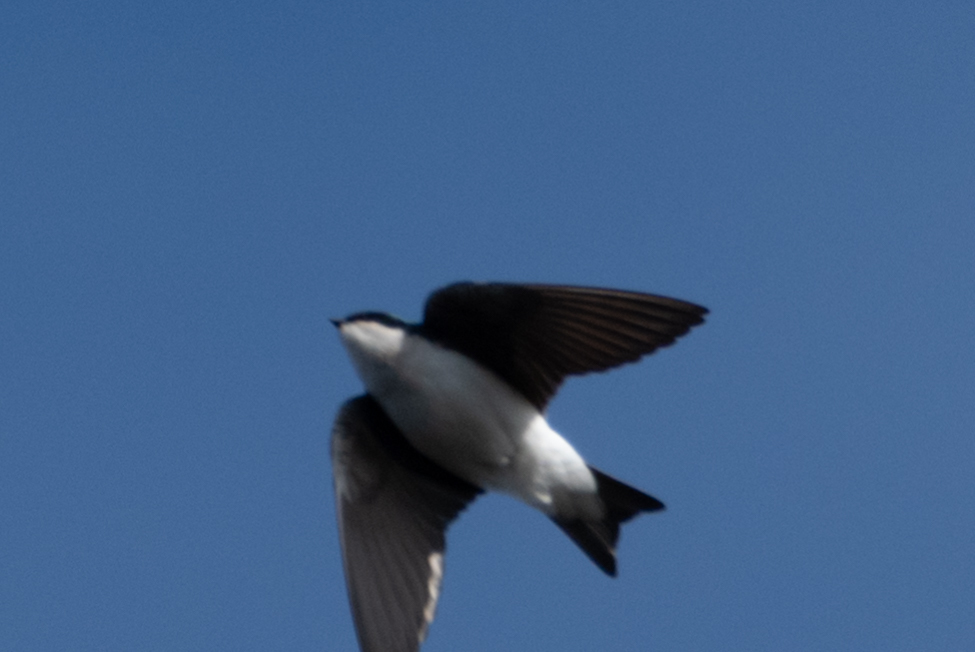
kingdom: Animalia
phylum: Chordata
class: Aves
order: Passeriformes
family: Hirundinidae
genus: Tachycineta
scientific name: Tachycineta bicolor
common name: Tree swallow
